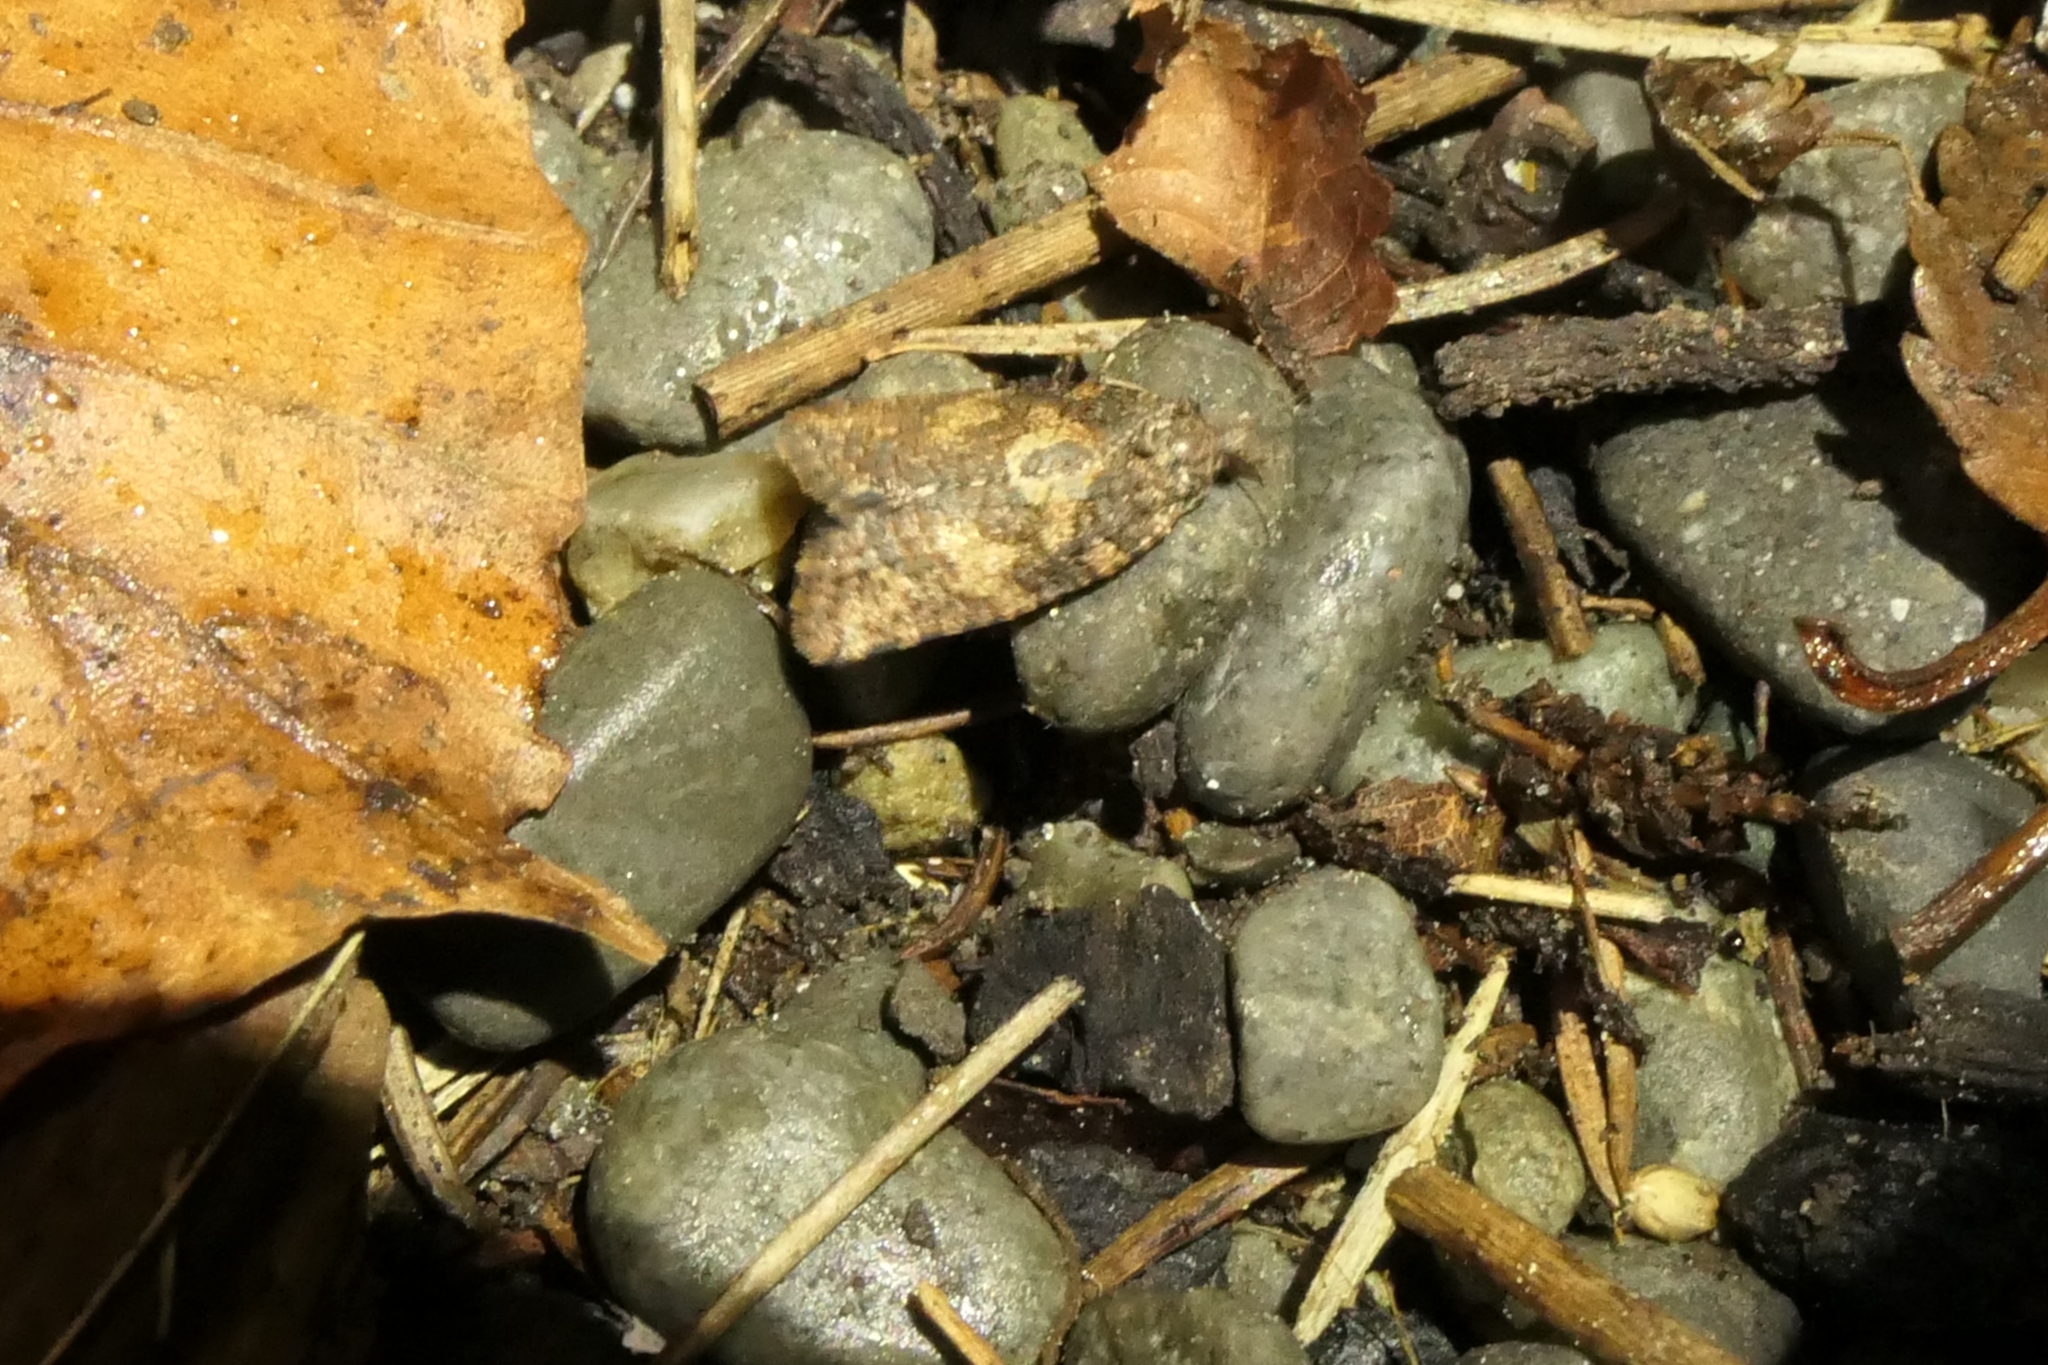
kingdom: Animalia
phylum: Arthropoda
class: Insecta
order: Lepidoptera
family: Tortricidae
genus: Capua
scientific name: Capua intractana
